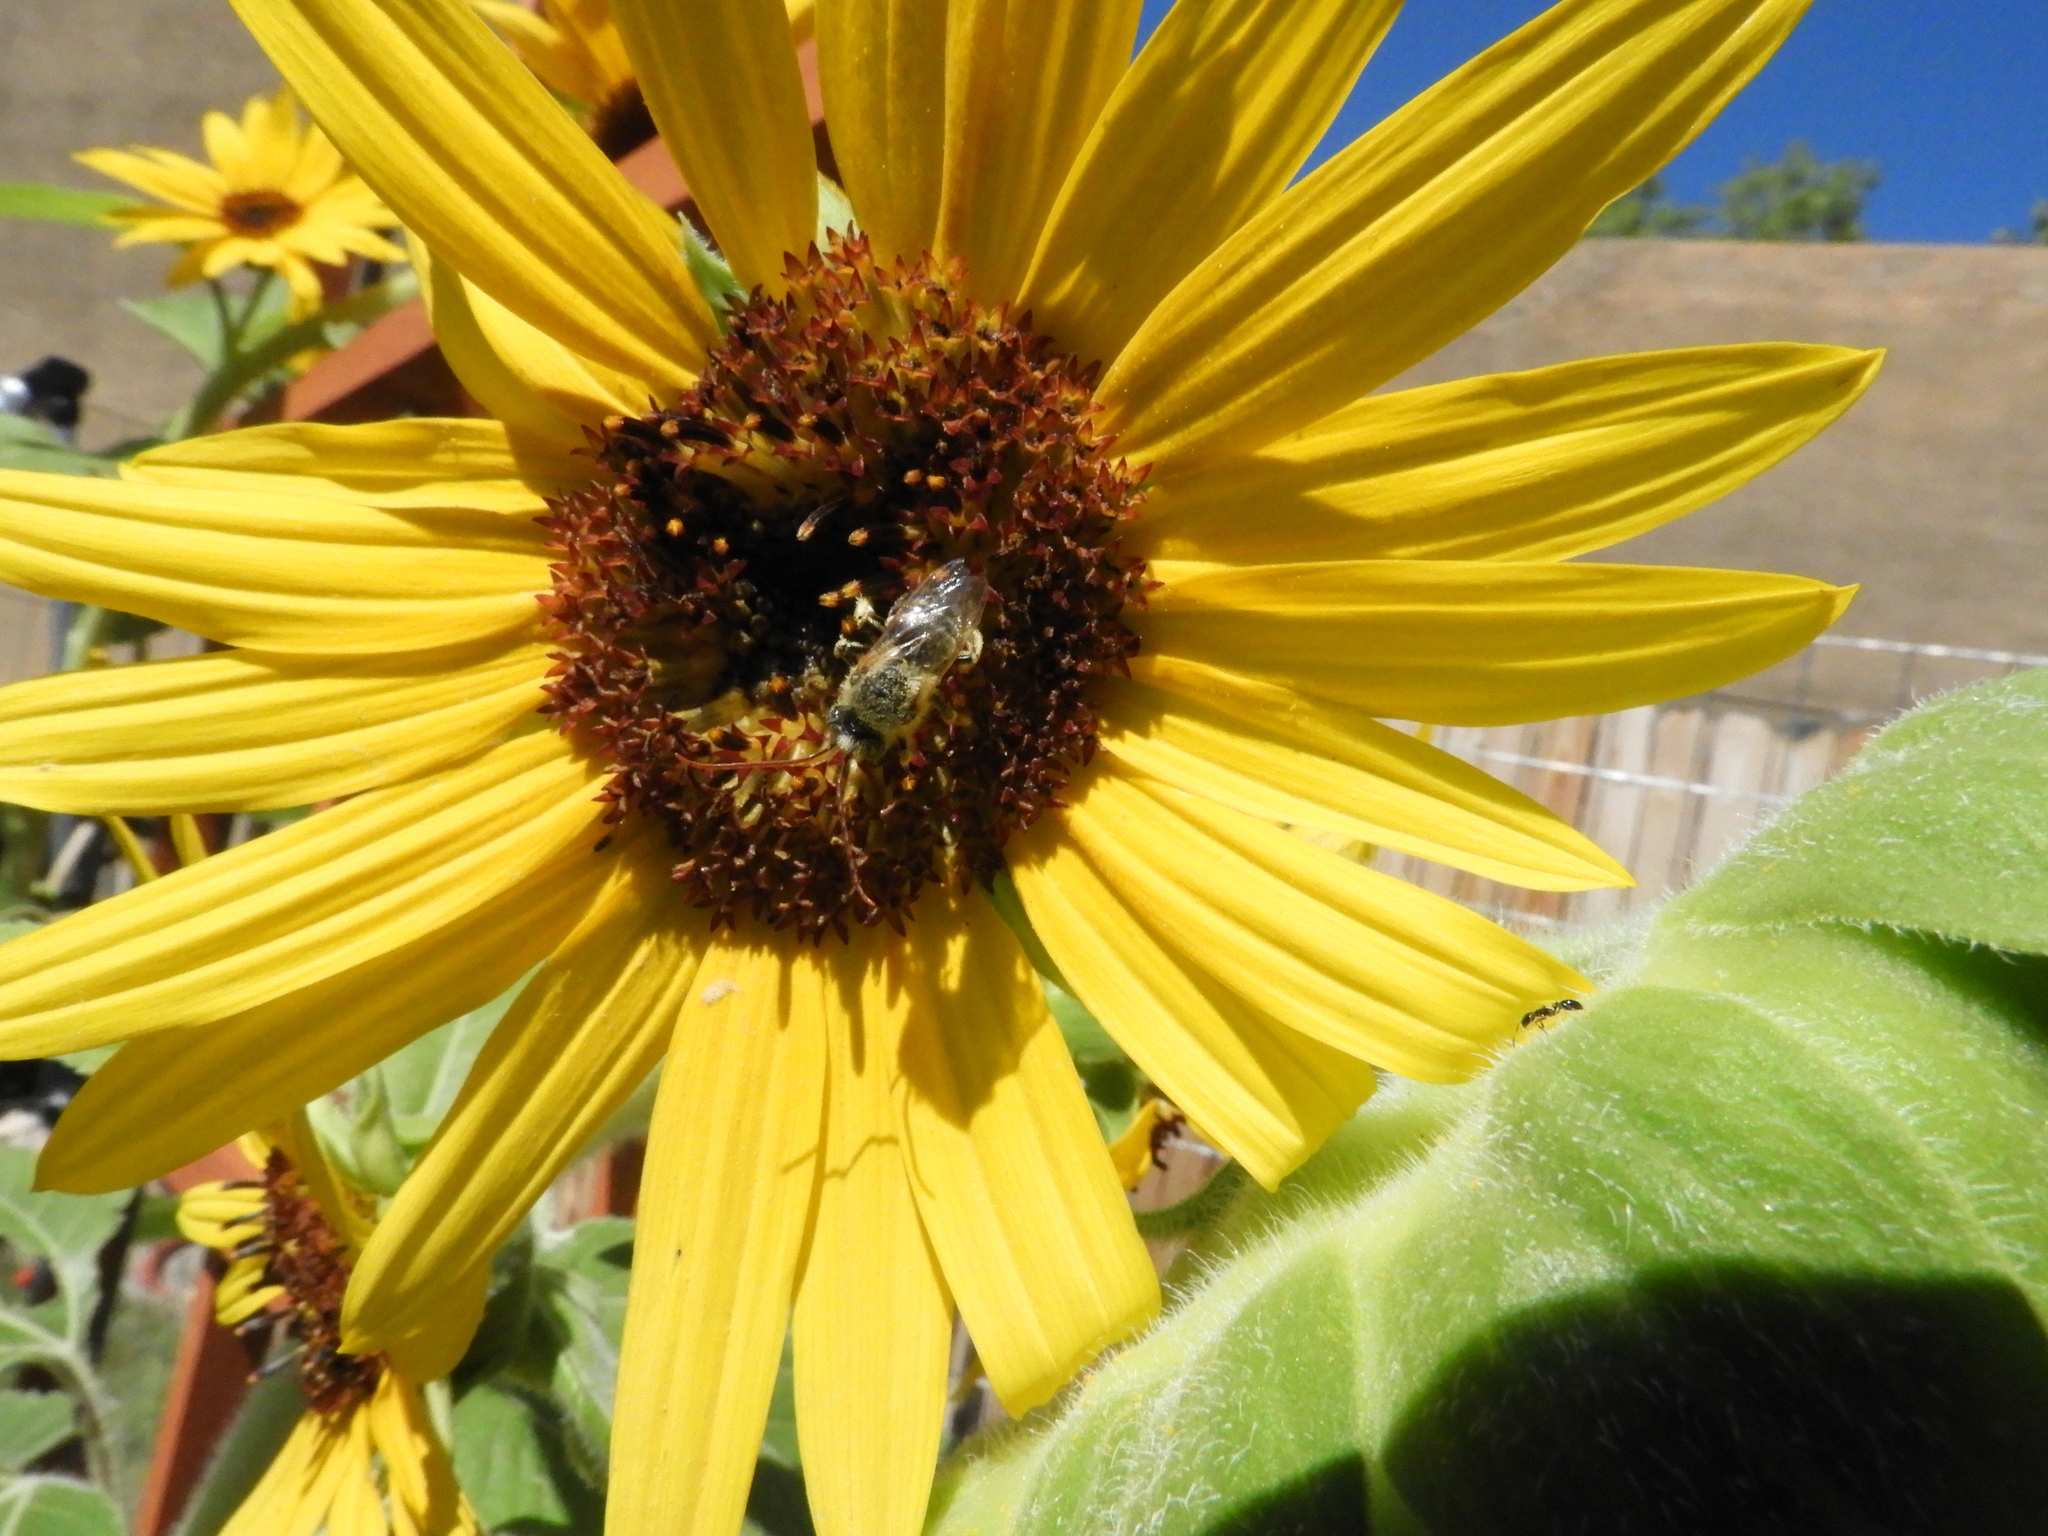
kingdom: Animalia
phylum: Arthropoda
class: Insecta
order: Hymenoptera
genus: Eumelissodes
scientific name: Eumelissodes
